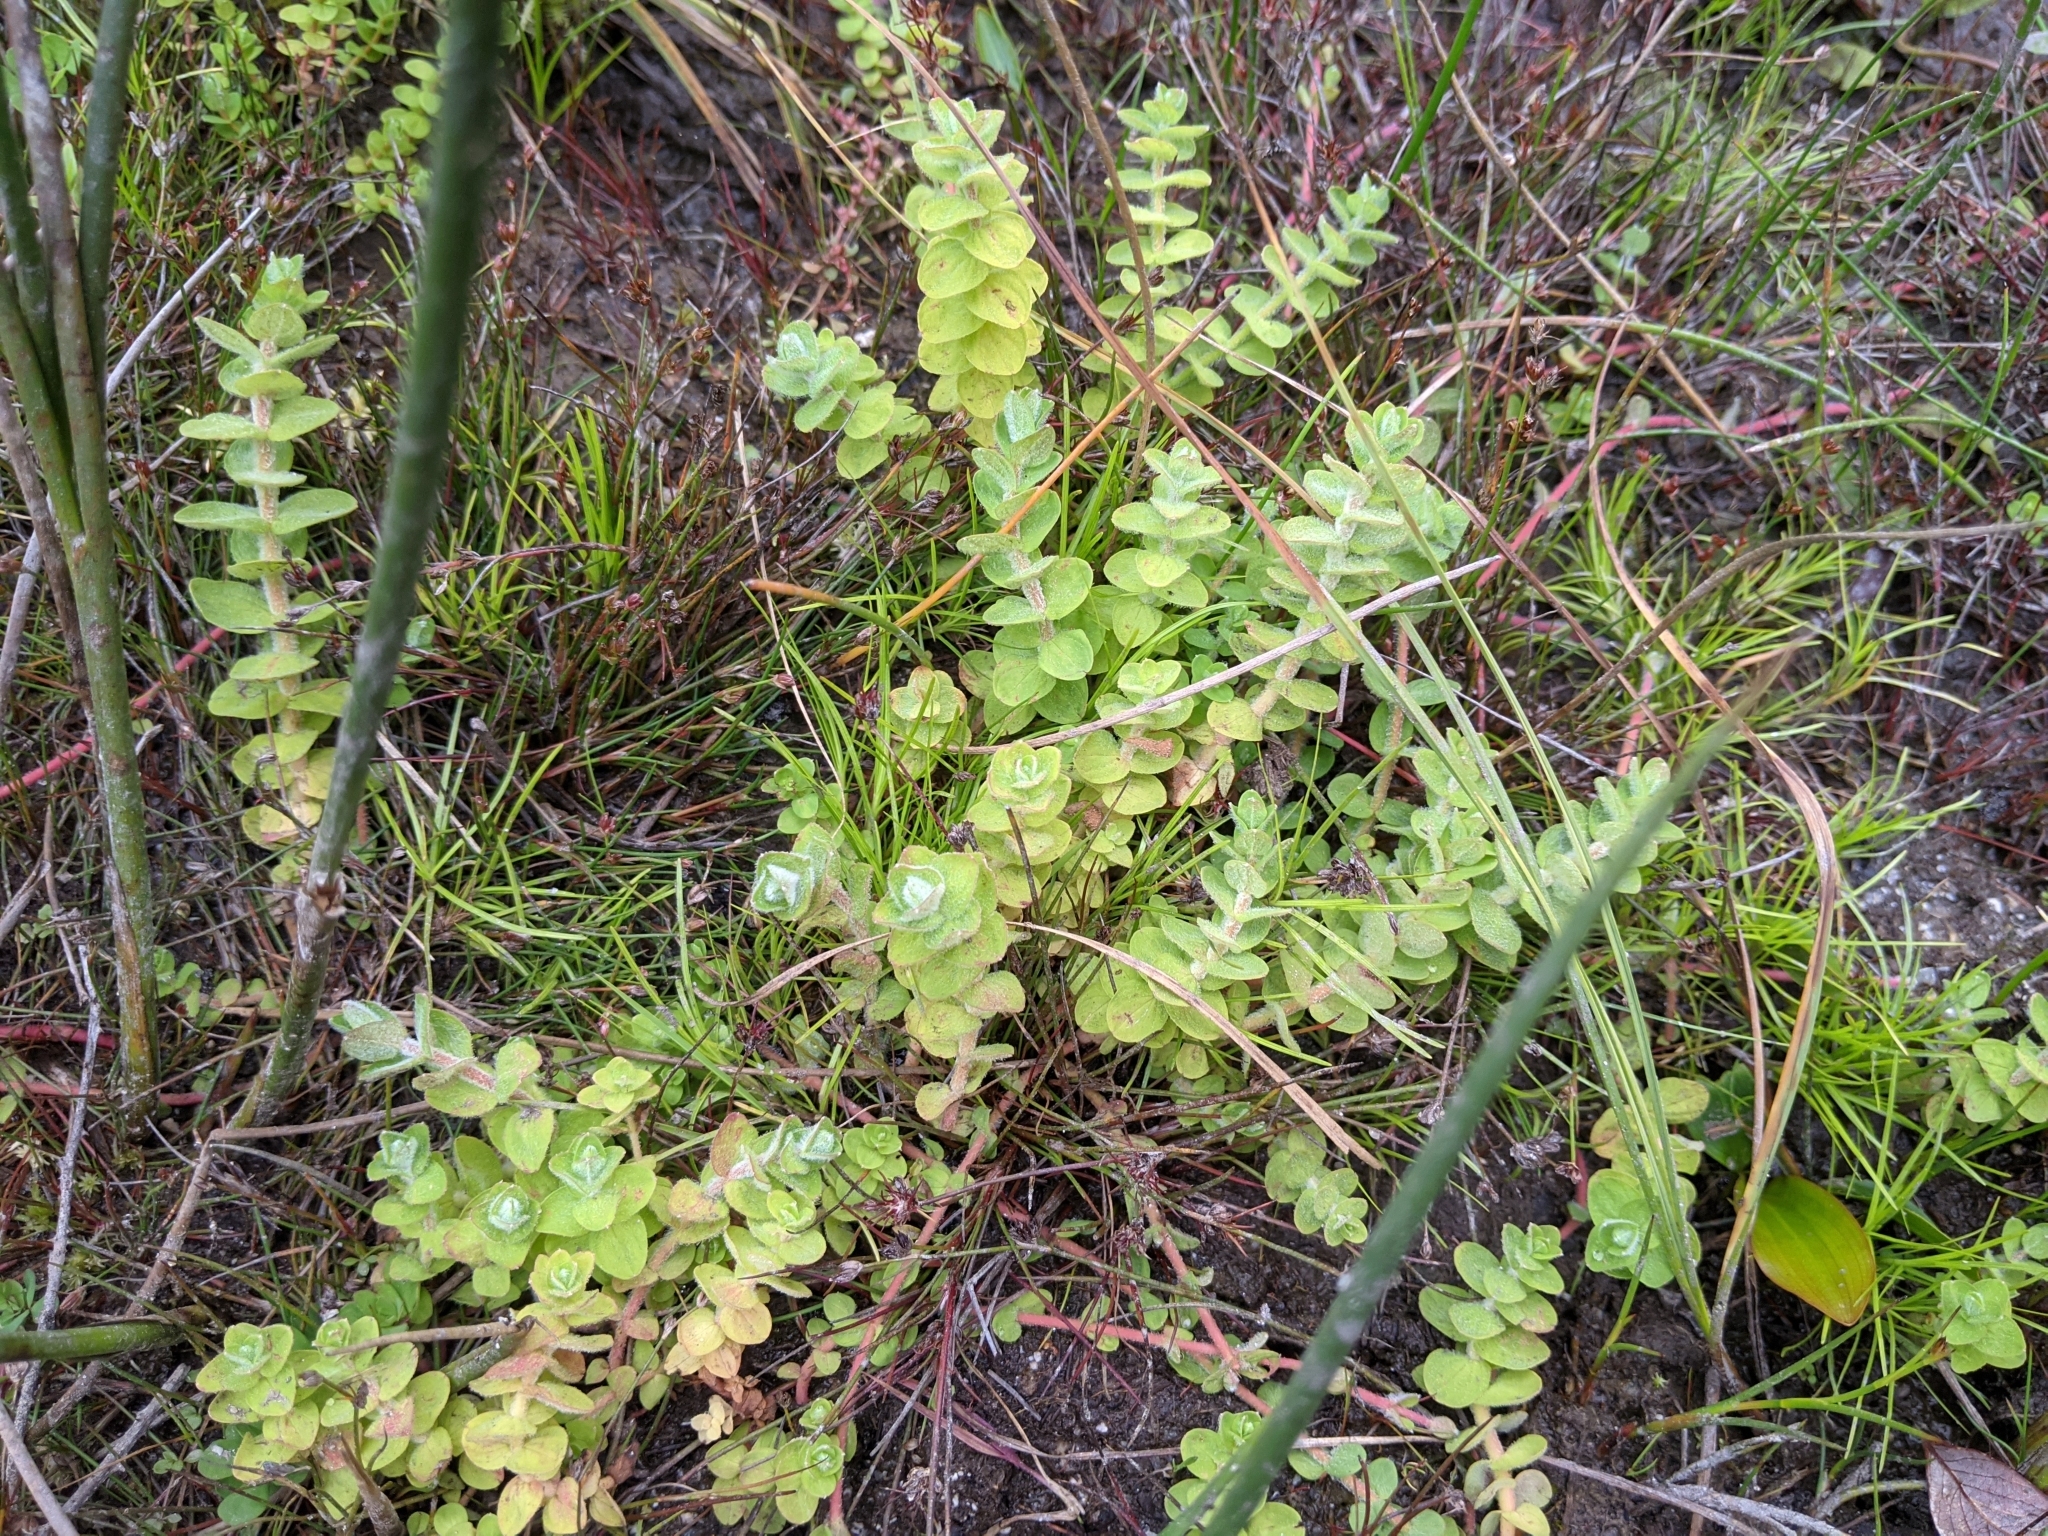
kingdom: Plantae
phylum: Tracheophyta
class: Magnoliopsida
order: Malpighiales
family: Hypericaceae
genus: Hypericum
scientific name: Hypericum elodes
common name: Marsh st. john's-wort
